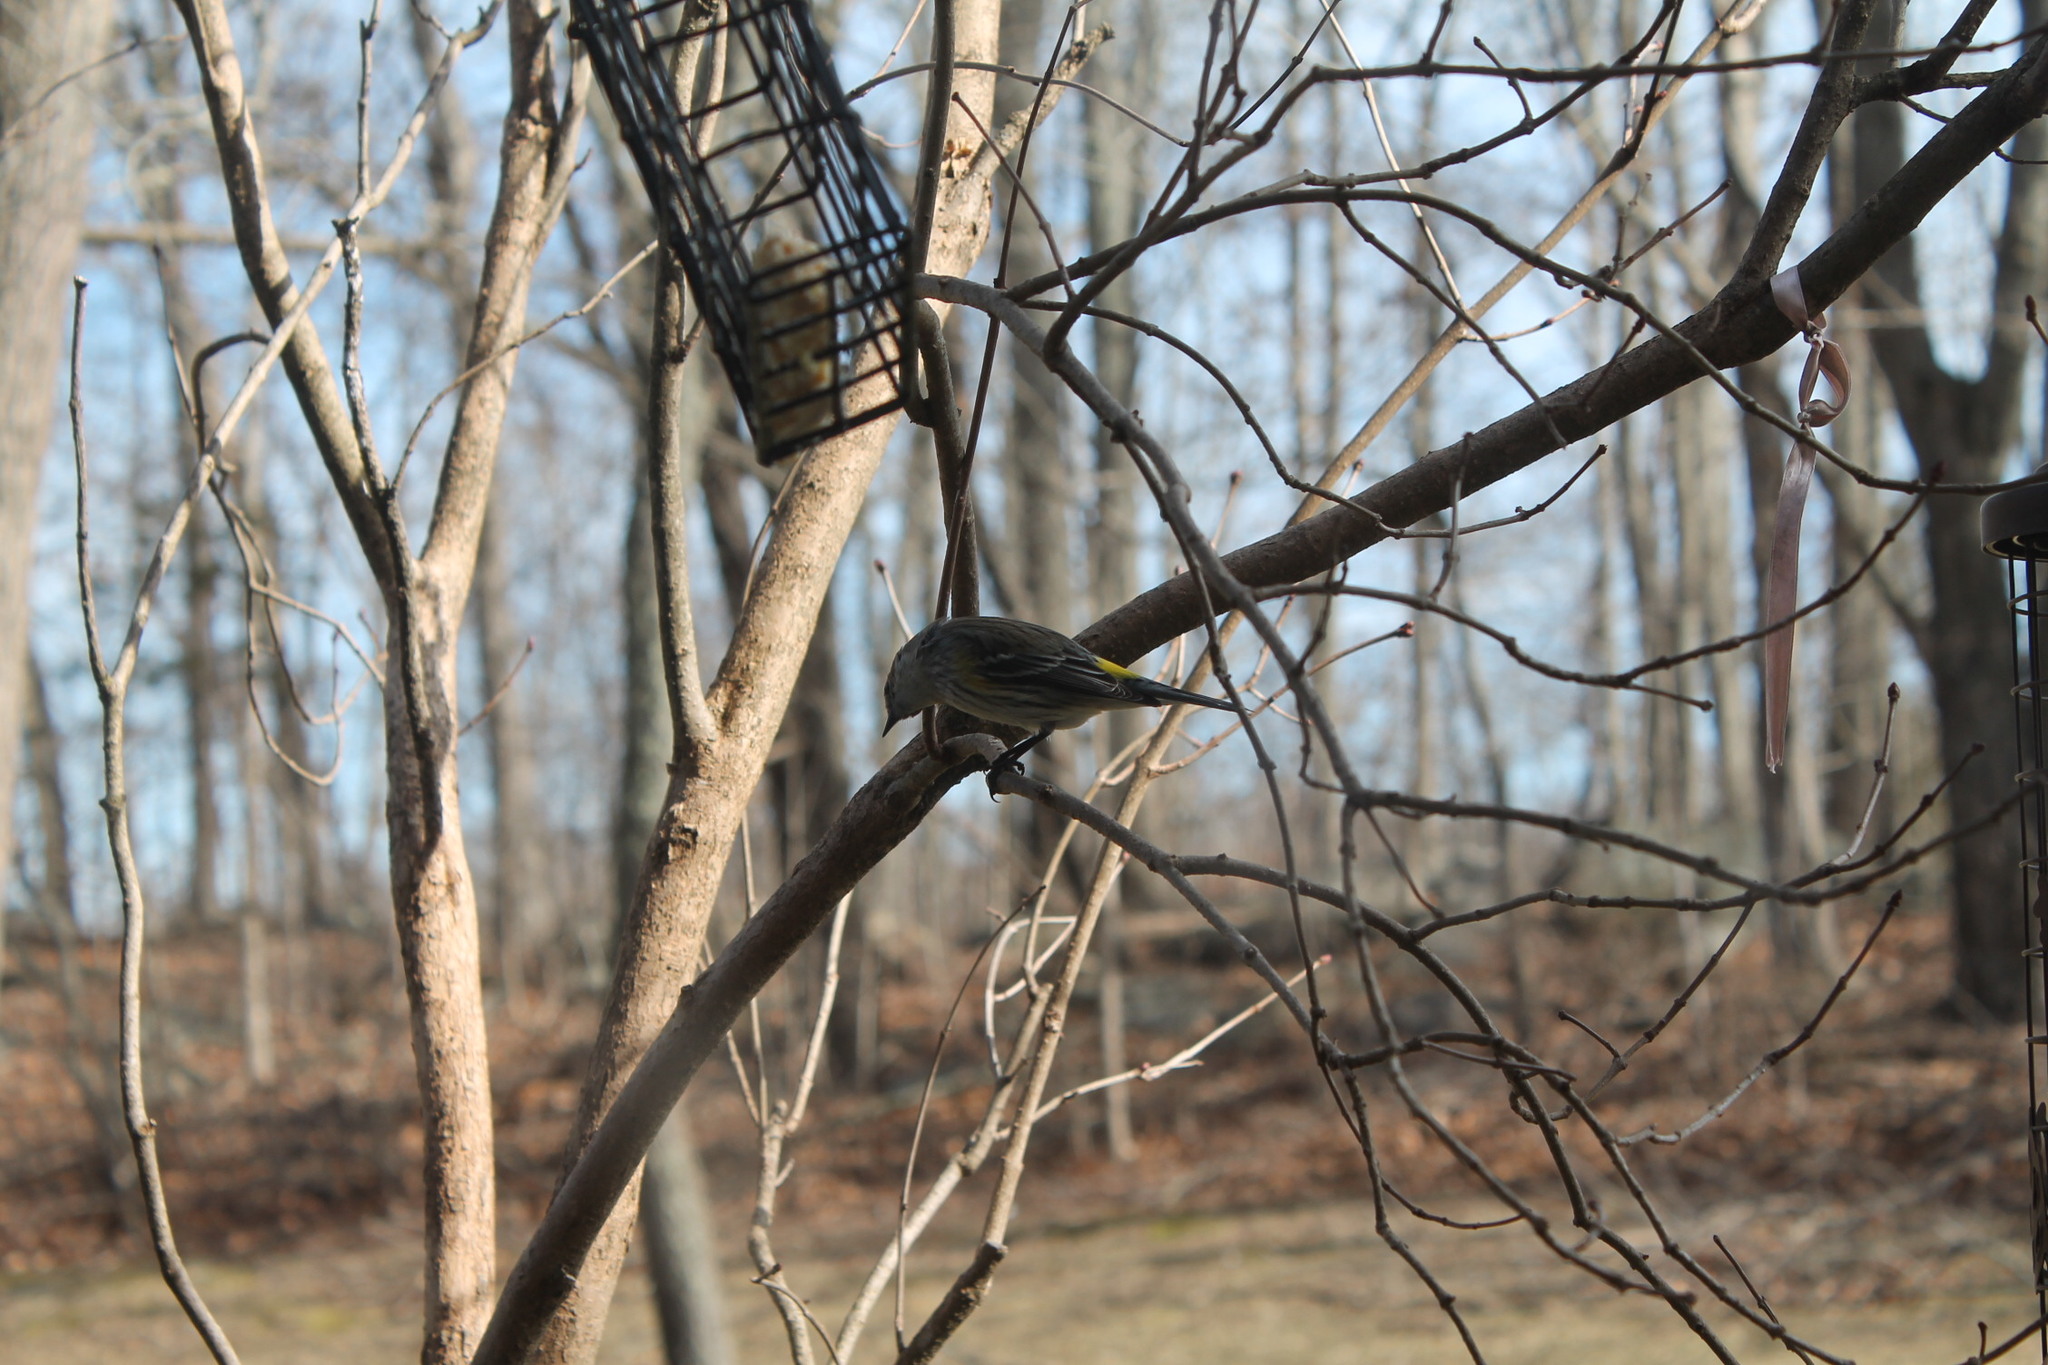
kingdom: Animalia
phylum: Chordata
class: Aves
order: Passeriformes
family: Parulidae
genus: Setophaga
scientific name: Setophaga coronata
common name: Myrtle warbler
